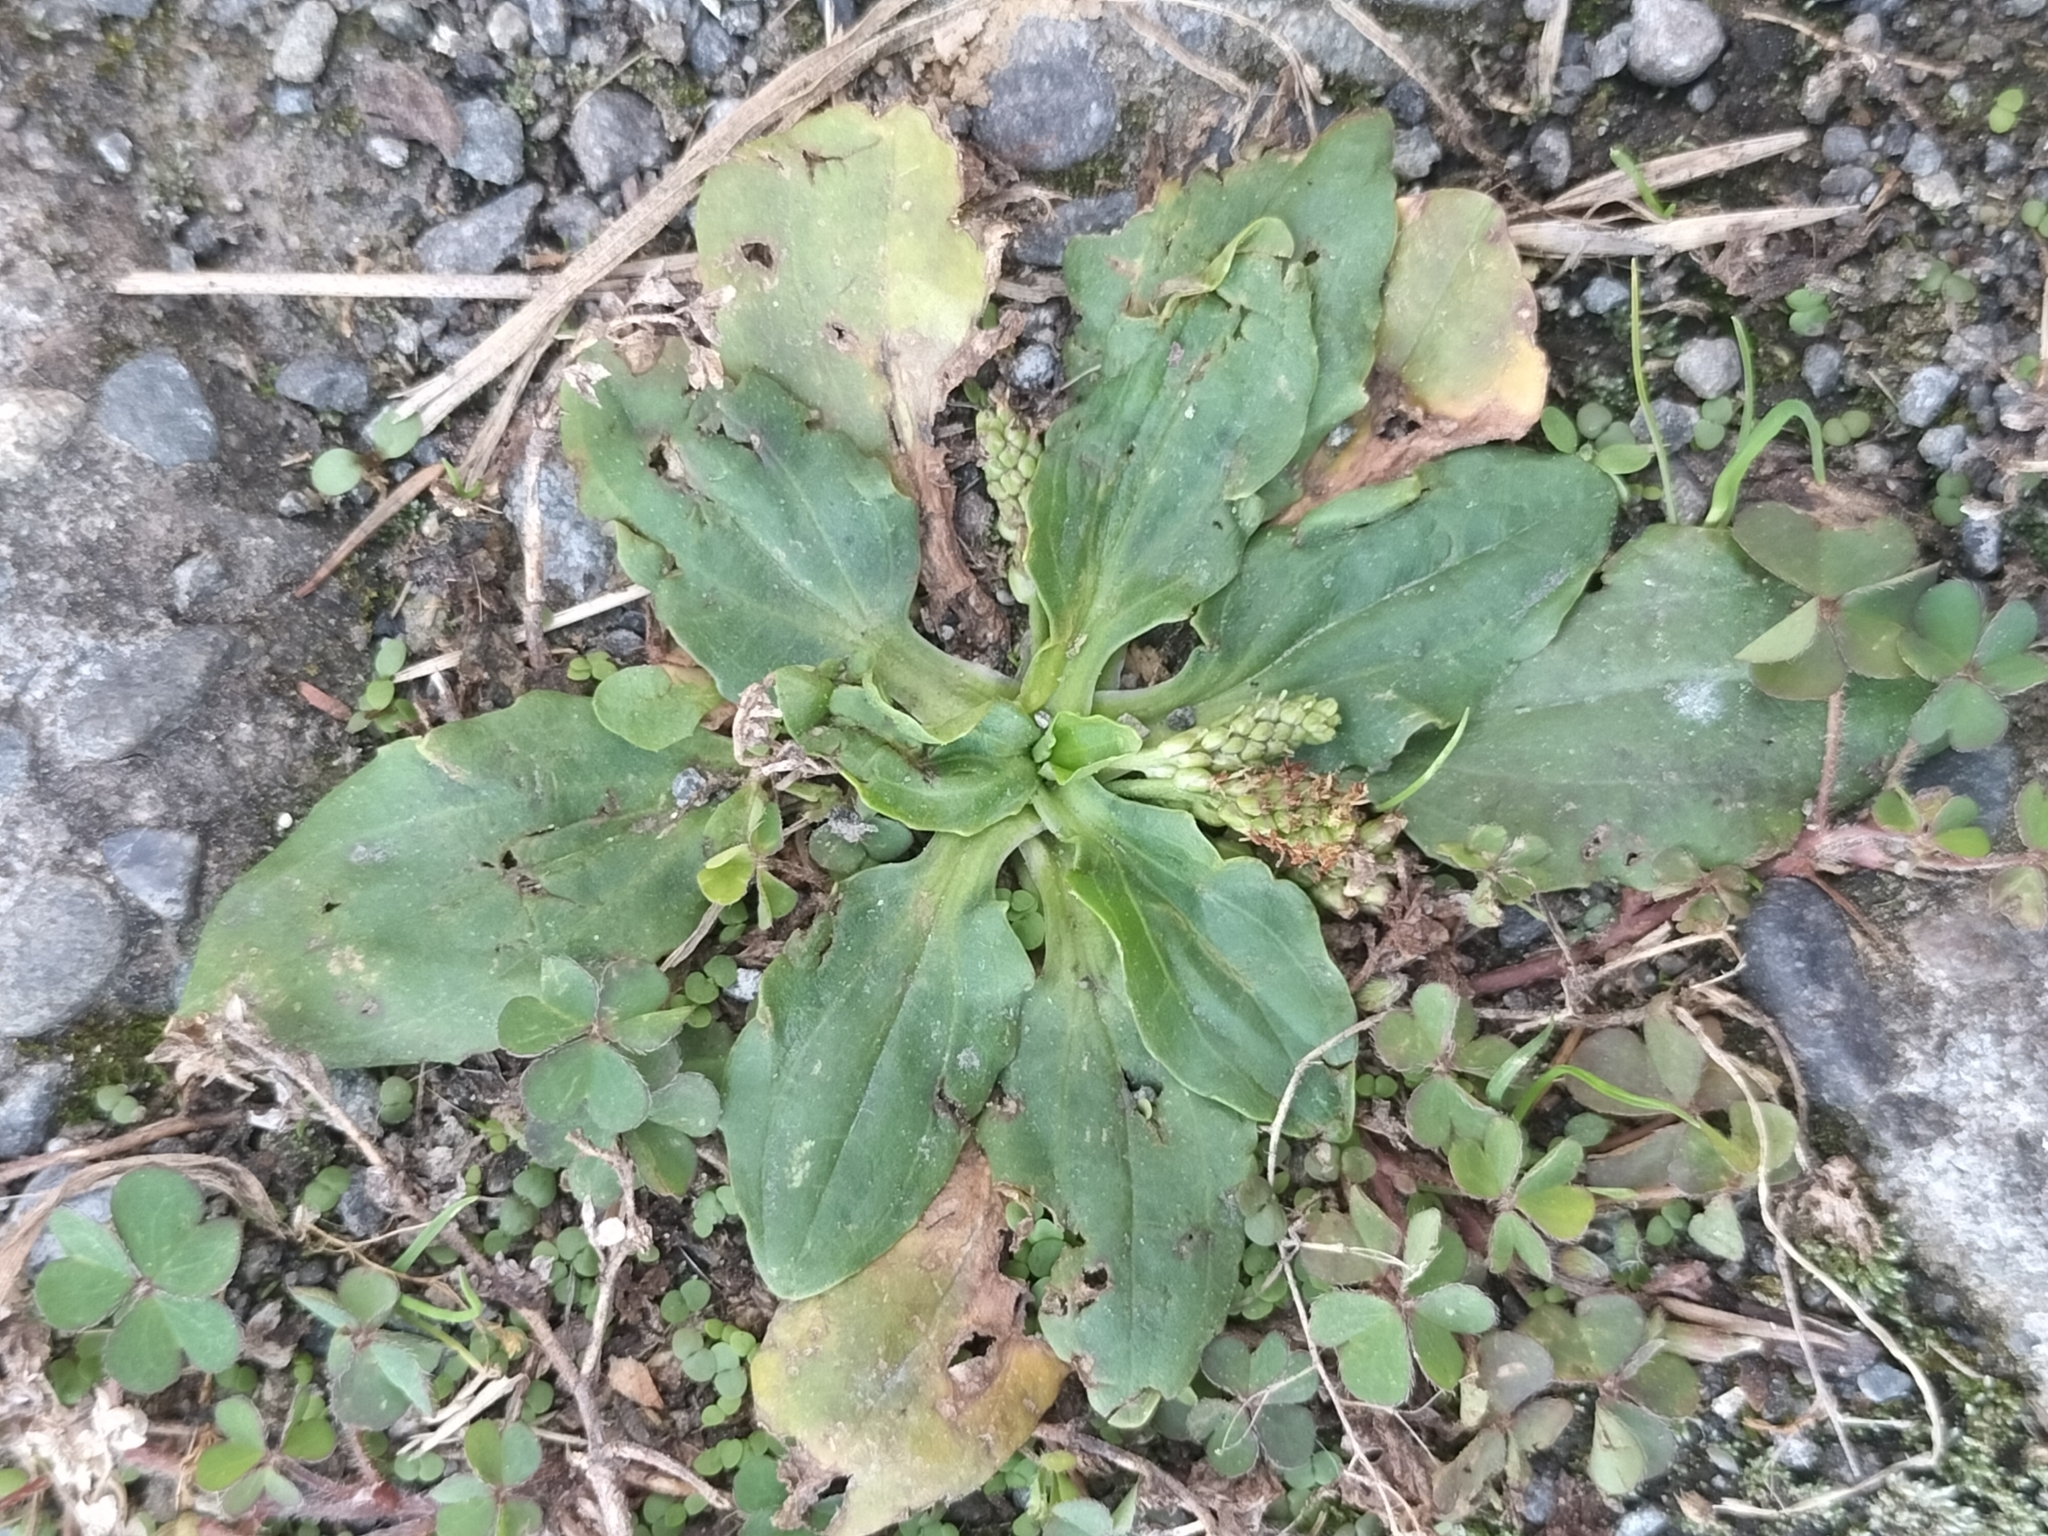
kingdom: Plantae
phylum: Tracheophyta
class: Magnoliopsida
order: Lamiales
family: Plantaginaceae
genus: Plantago
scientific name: Plantago major
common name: Common plantain
